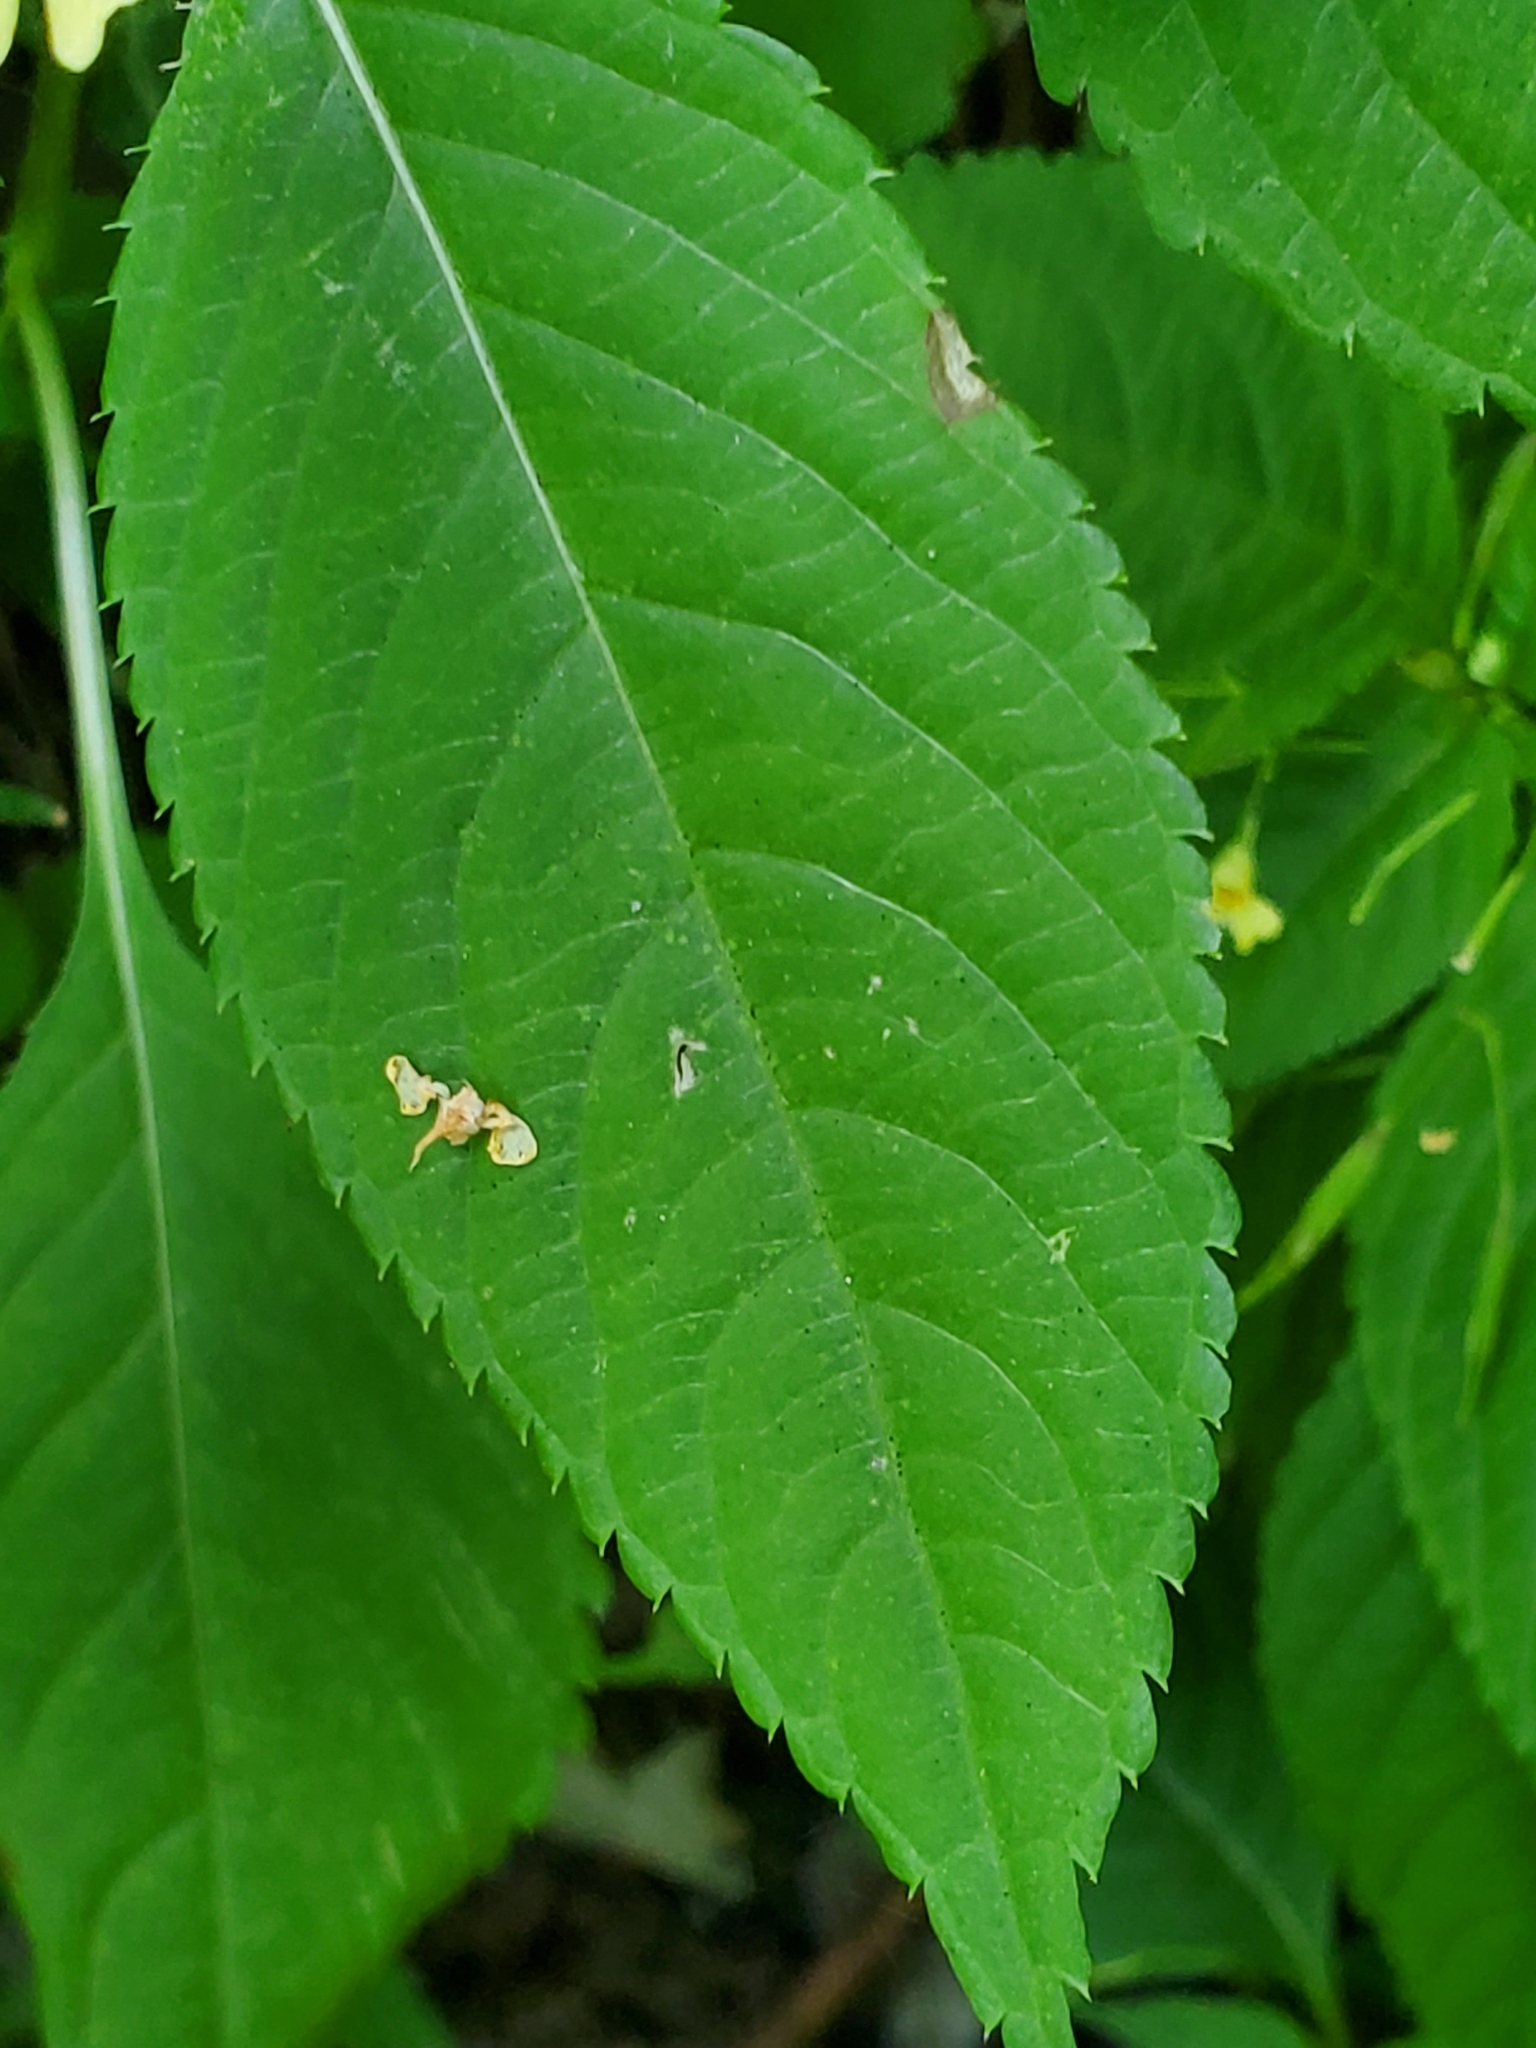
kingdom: Plantae
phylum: Tracheophyta
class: Magnoliopsida
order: Ericales
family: Balsaminaceae
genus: Impatiens
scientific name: Impatiens parviflora
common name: Small balsam
